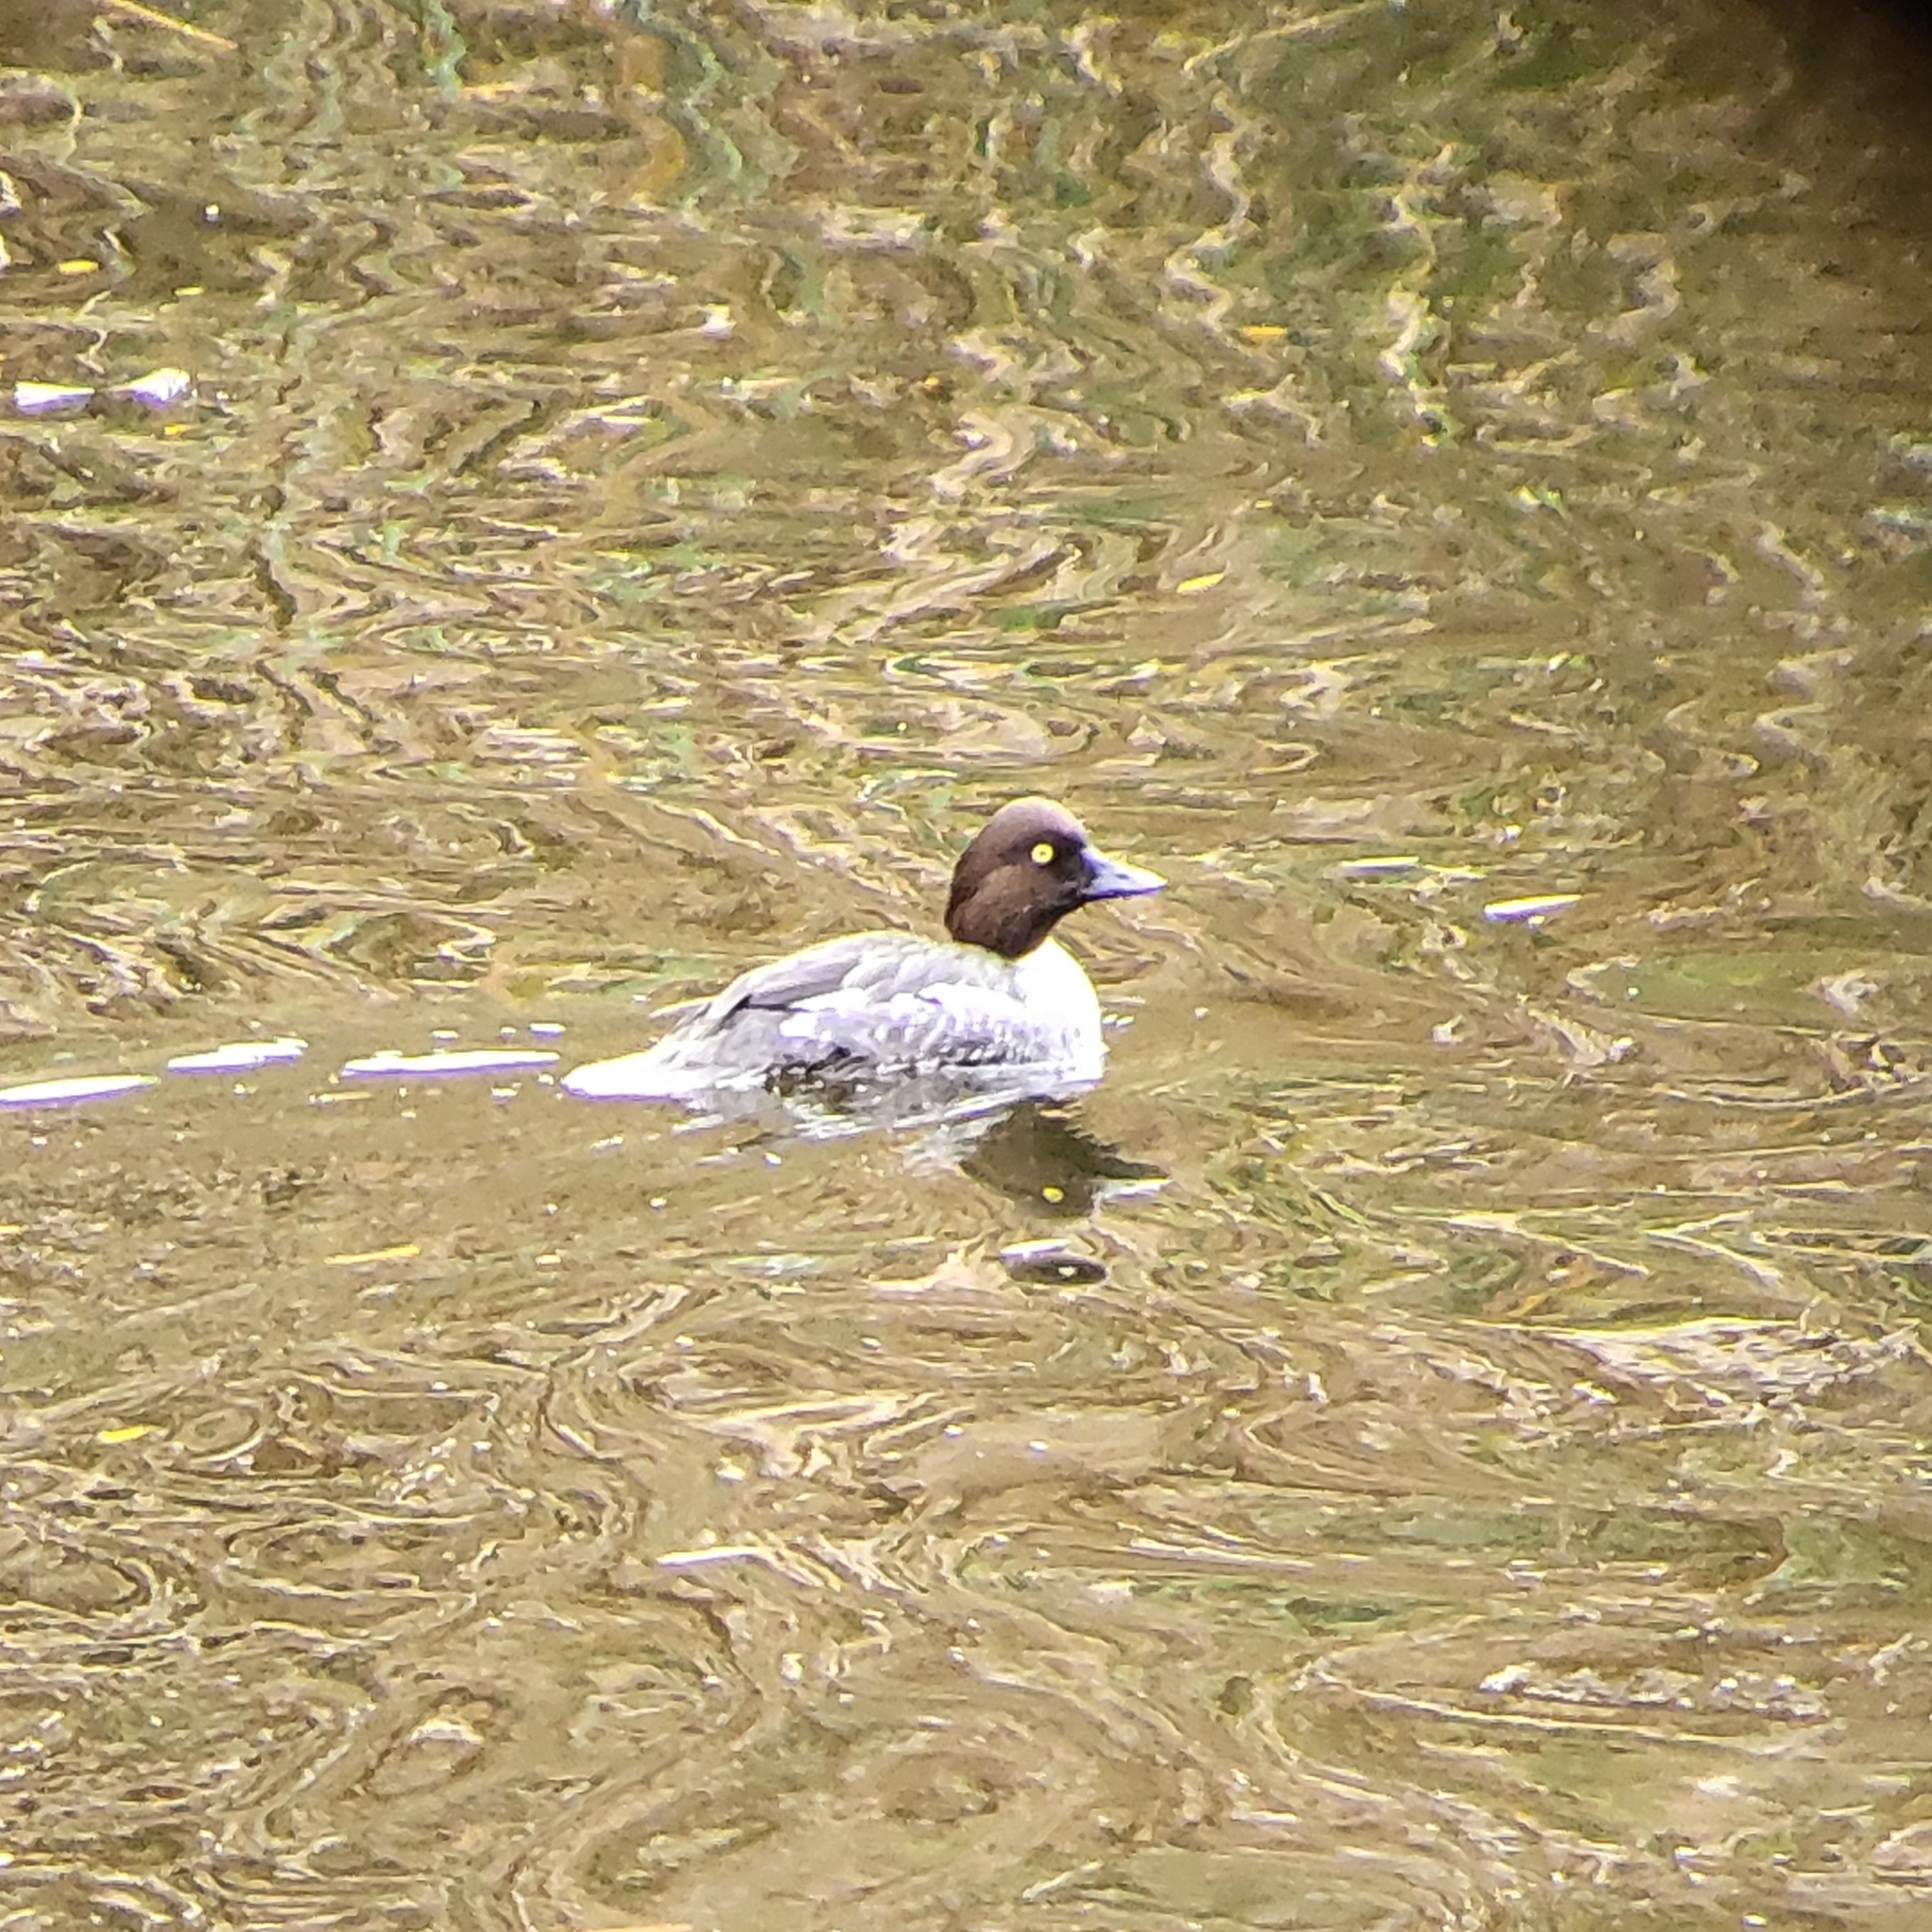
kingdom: Animalia
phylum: Chordata
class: Aves
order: Anseriformes
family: Anatidae
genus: Bucephala
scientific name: Bucephala clangula
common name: Common goldeneye
